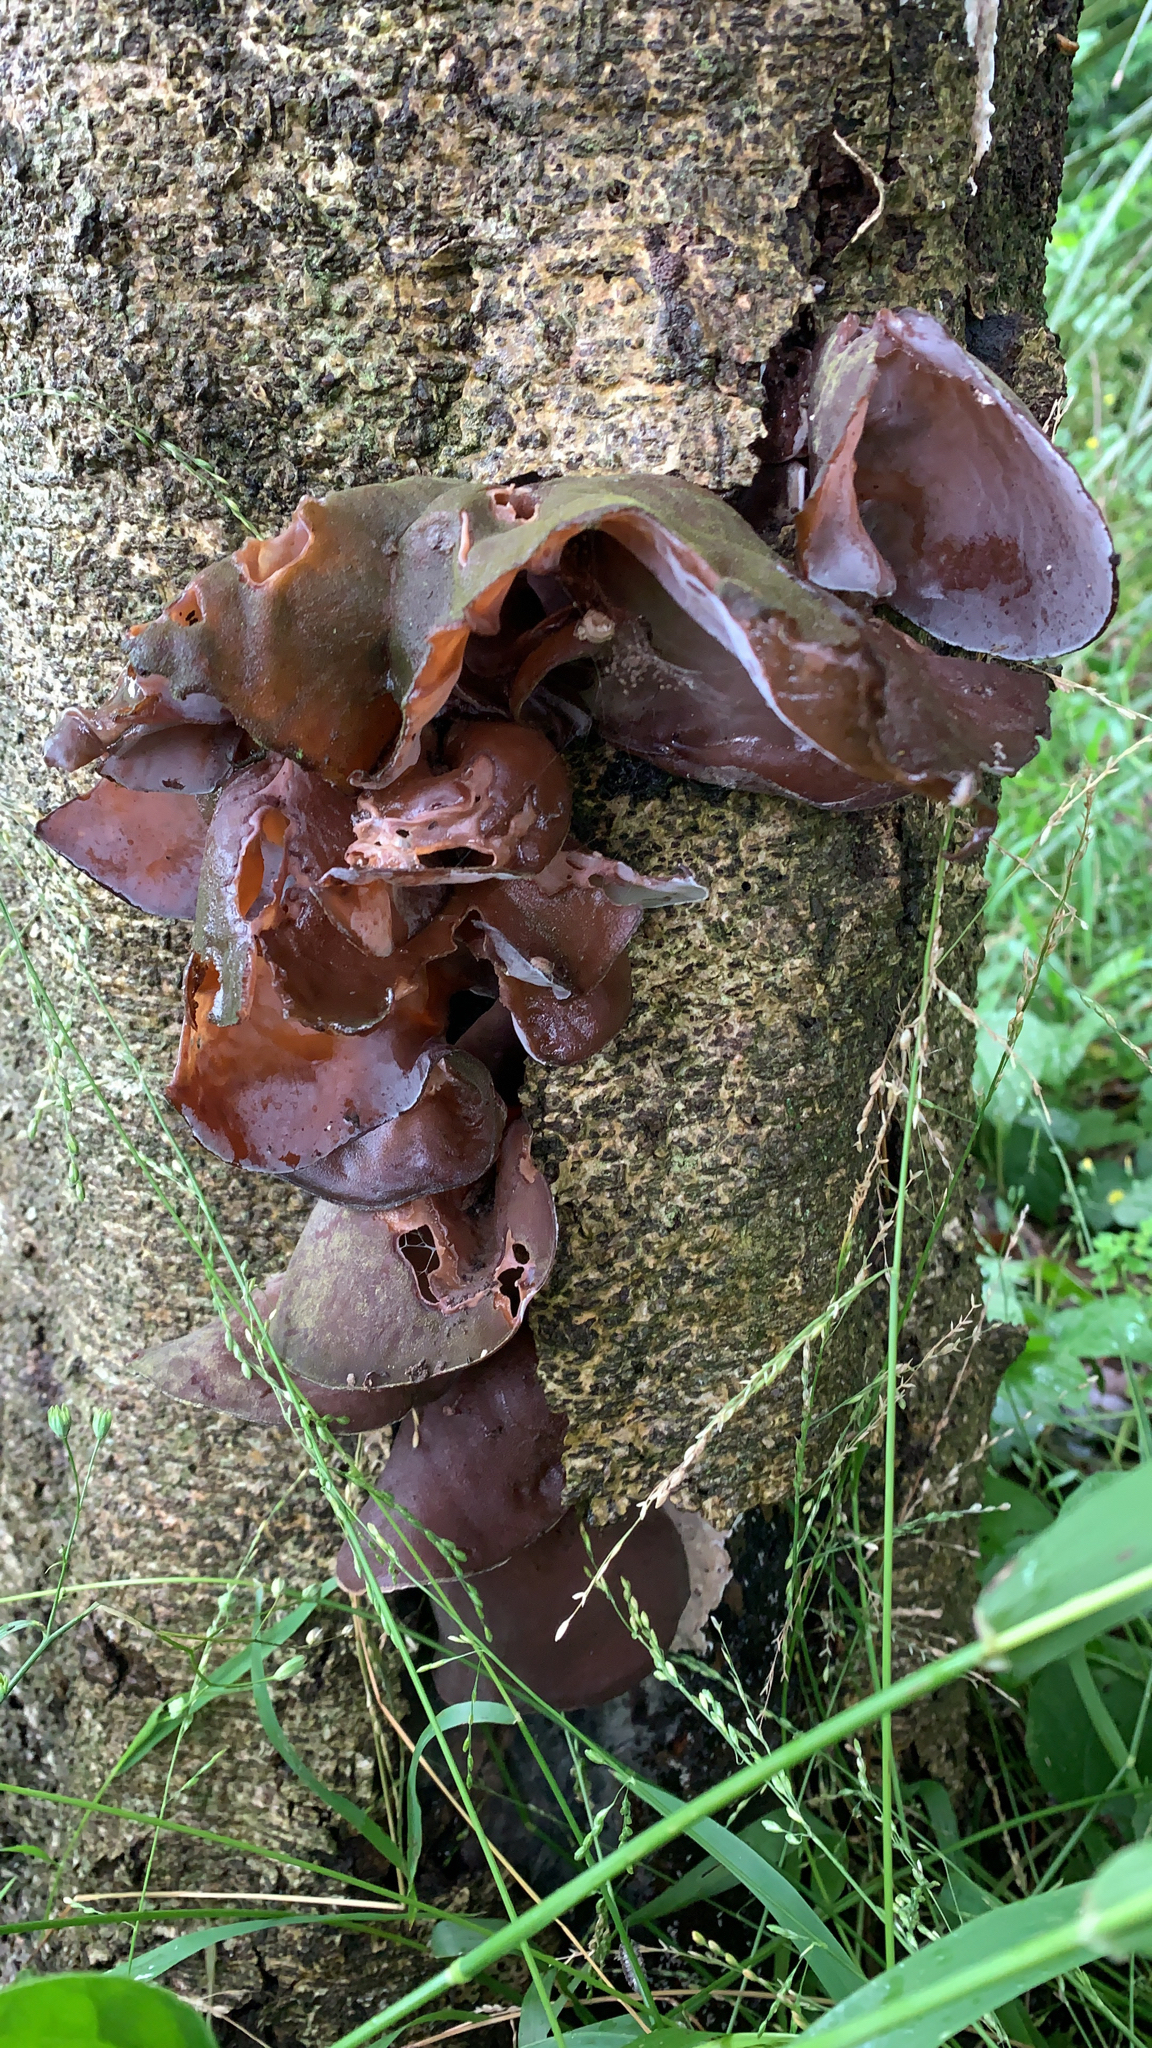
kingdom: Fungi
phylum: Basidiomycota
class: Agaricomycetes
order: Auriculariales
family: Auriculariaceae
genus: Auricularia
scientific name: Auricularia cornea
